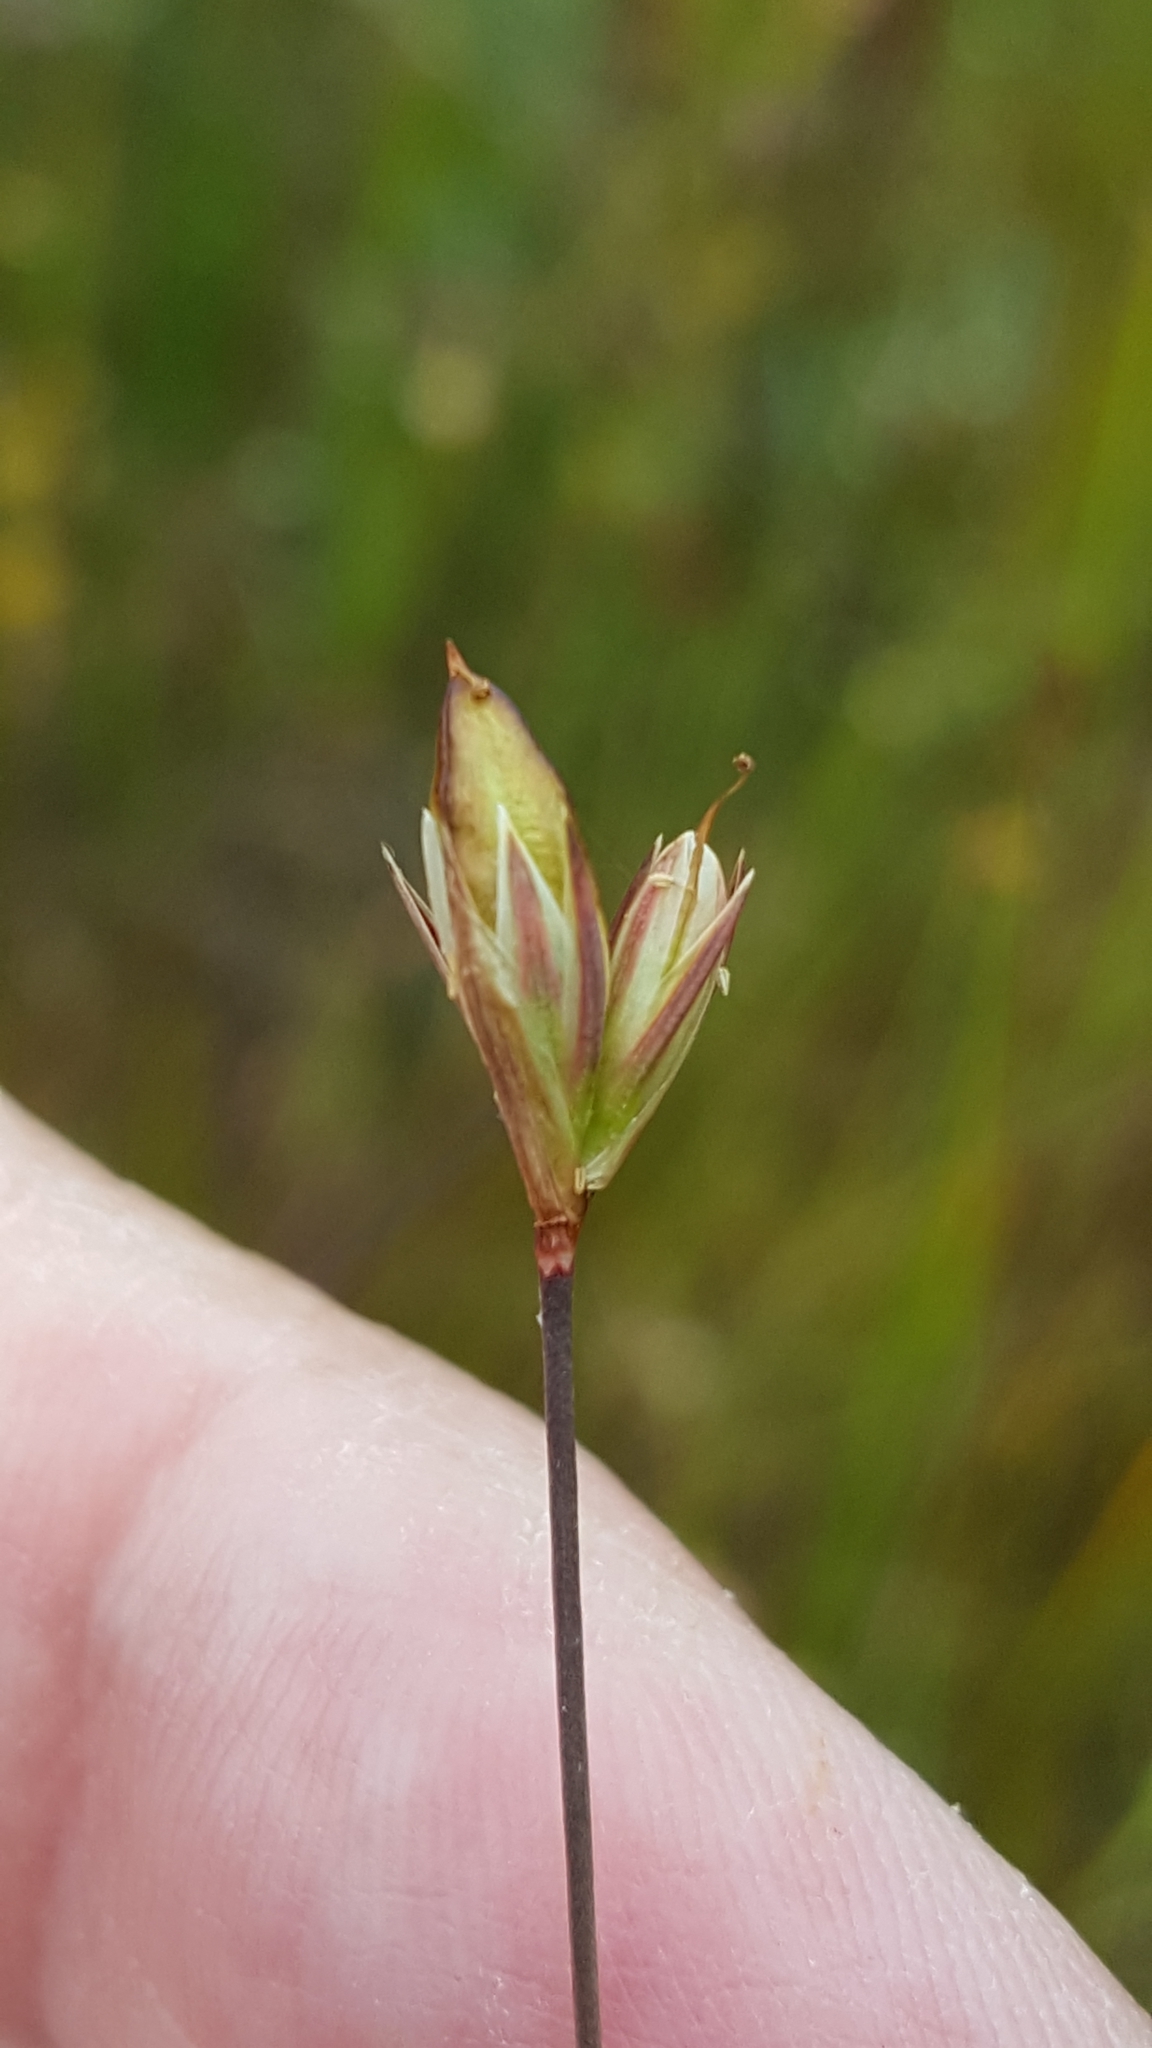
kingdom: Plantae
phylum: Tracheophyta
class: Liliopsida
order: Poales
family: Juncaceae
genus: Juncus
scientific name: Juncus stygius
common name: Bog rush
